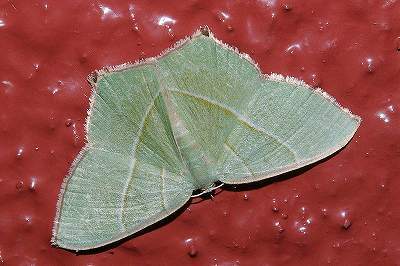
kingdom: Animalia
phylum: Arthropoda
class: Insecta
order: Lepidoptera
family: Geometridae
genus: Neohipparchus
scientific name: Neohipparchus vallata
